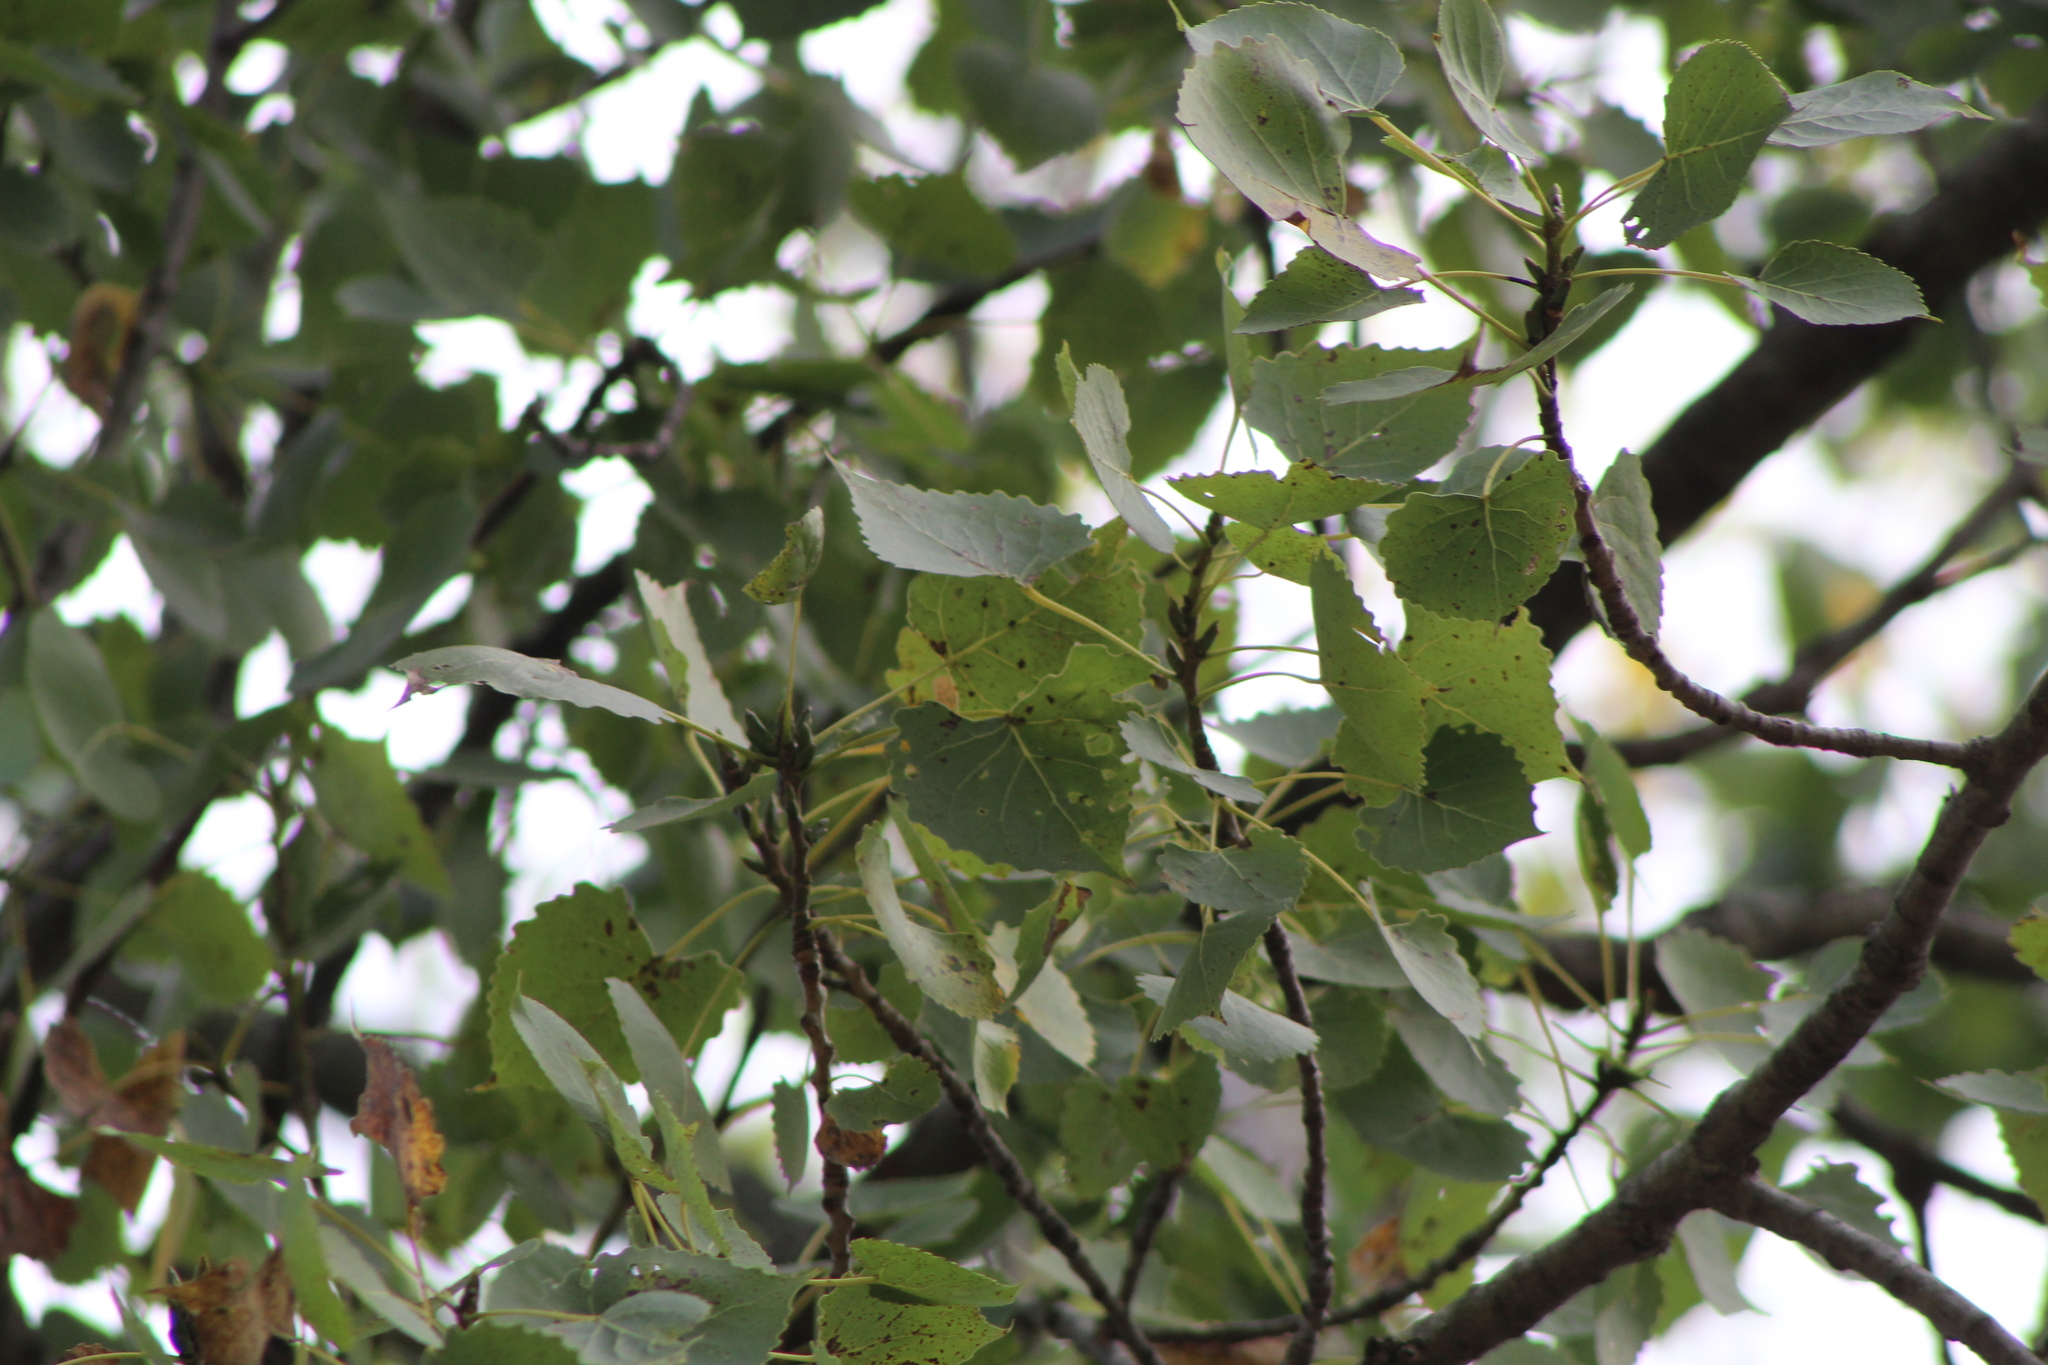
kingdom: Plantae
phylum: Tracheophyta
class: Magnoliopsida
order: Malpighiales
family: Salicaceae
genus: Populus
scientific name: Populus deltoides
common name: Eastern cottonwood
